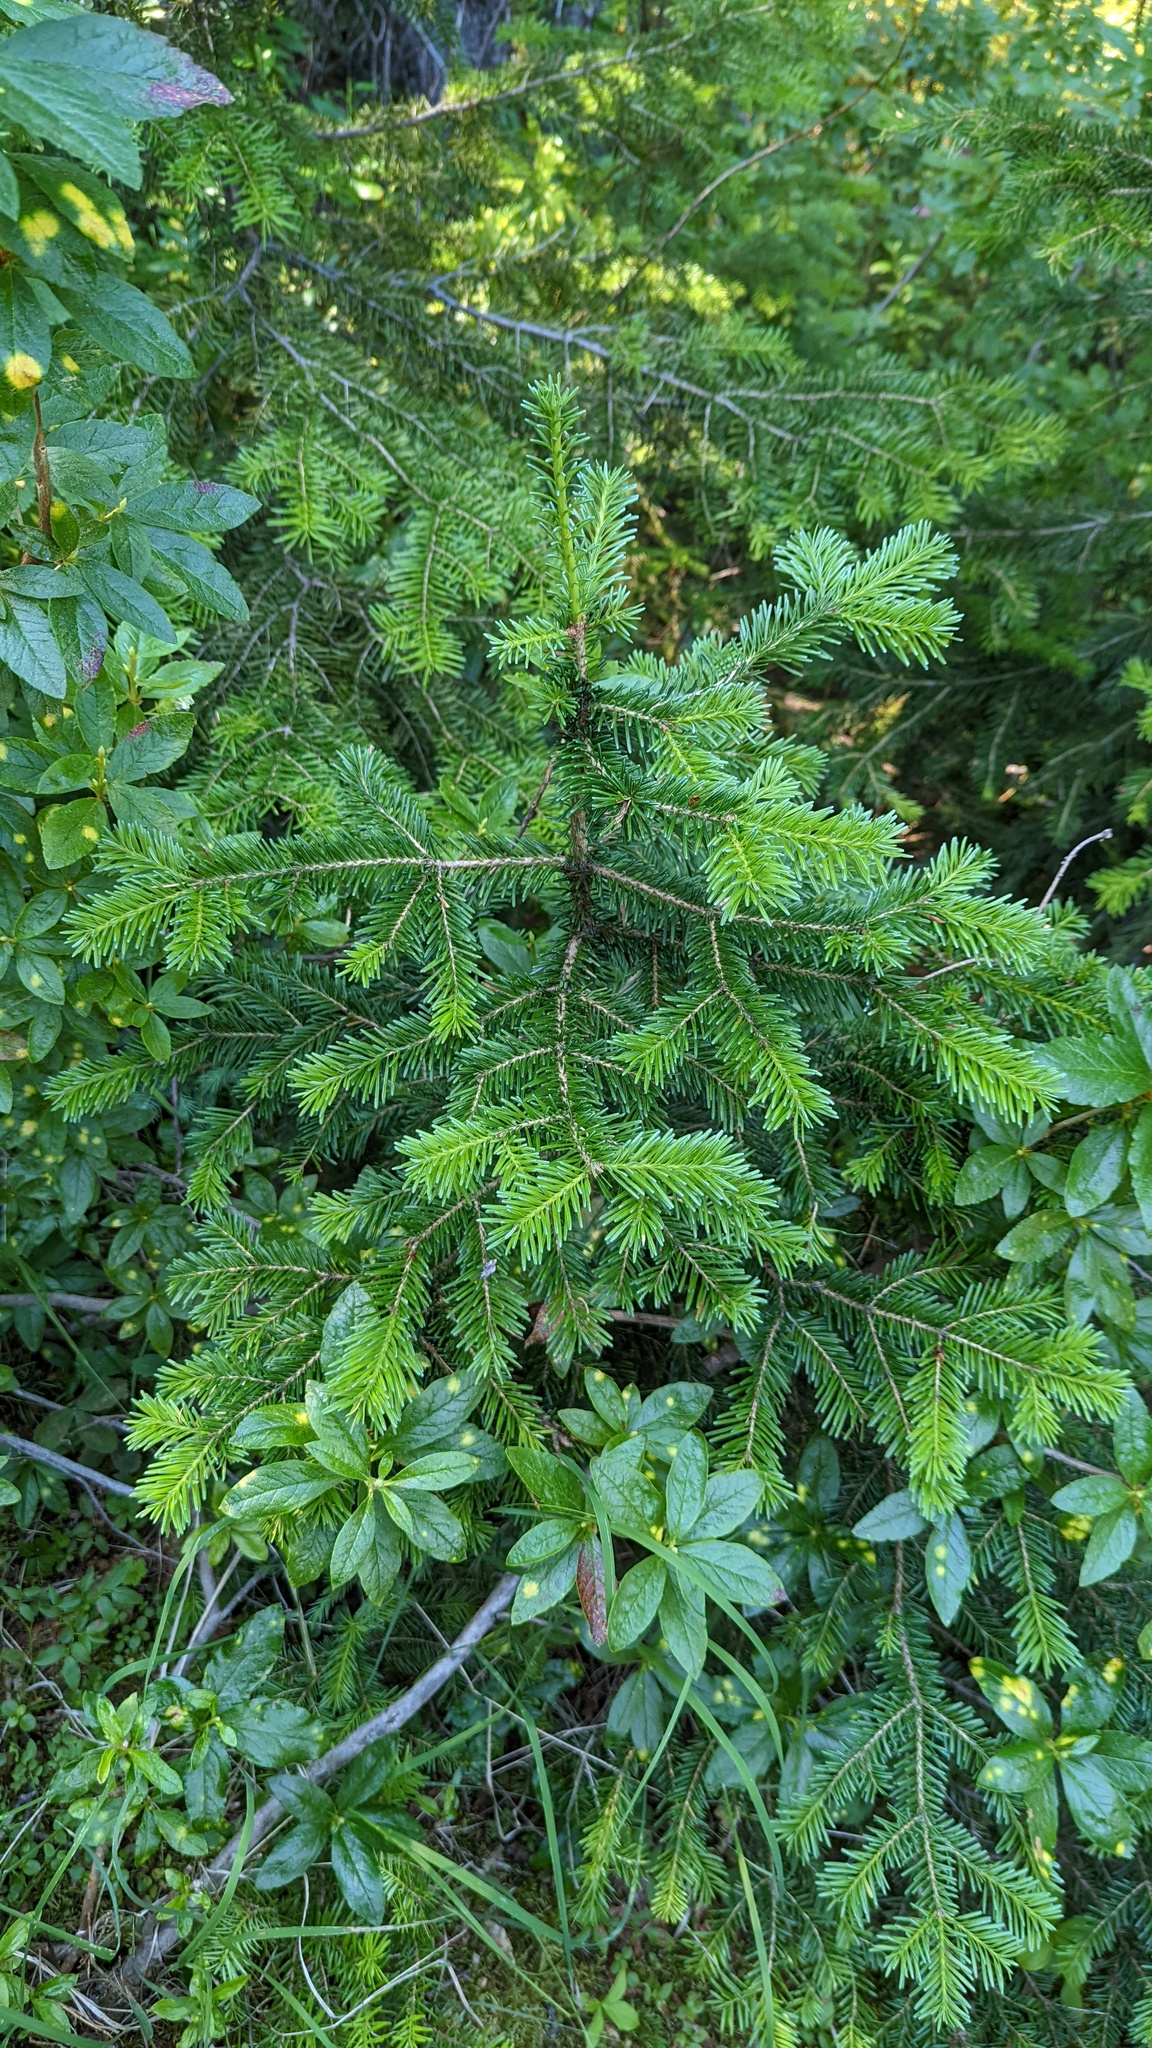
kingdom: Plantae
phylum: Tracheophyta
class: Pinopsida
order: Pinales
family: Pinaceae
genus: Abies
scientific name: Abies lasiocarpa
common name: Subalpine fir
